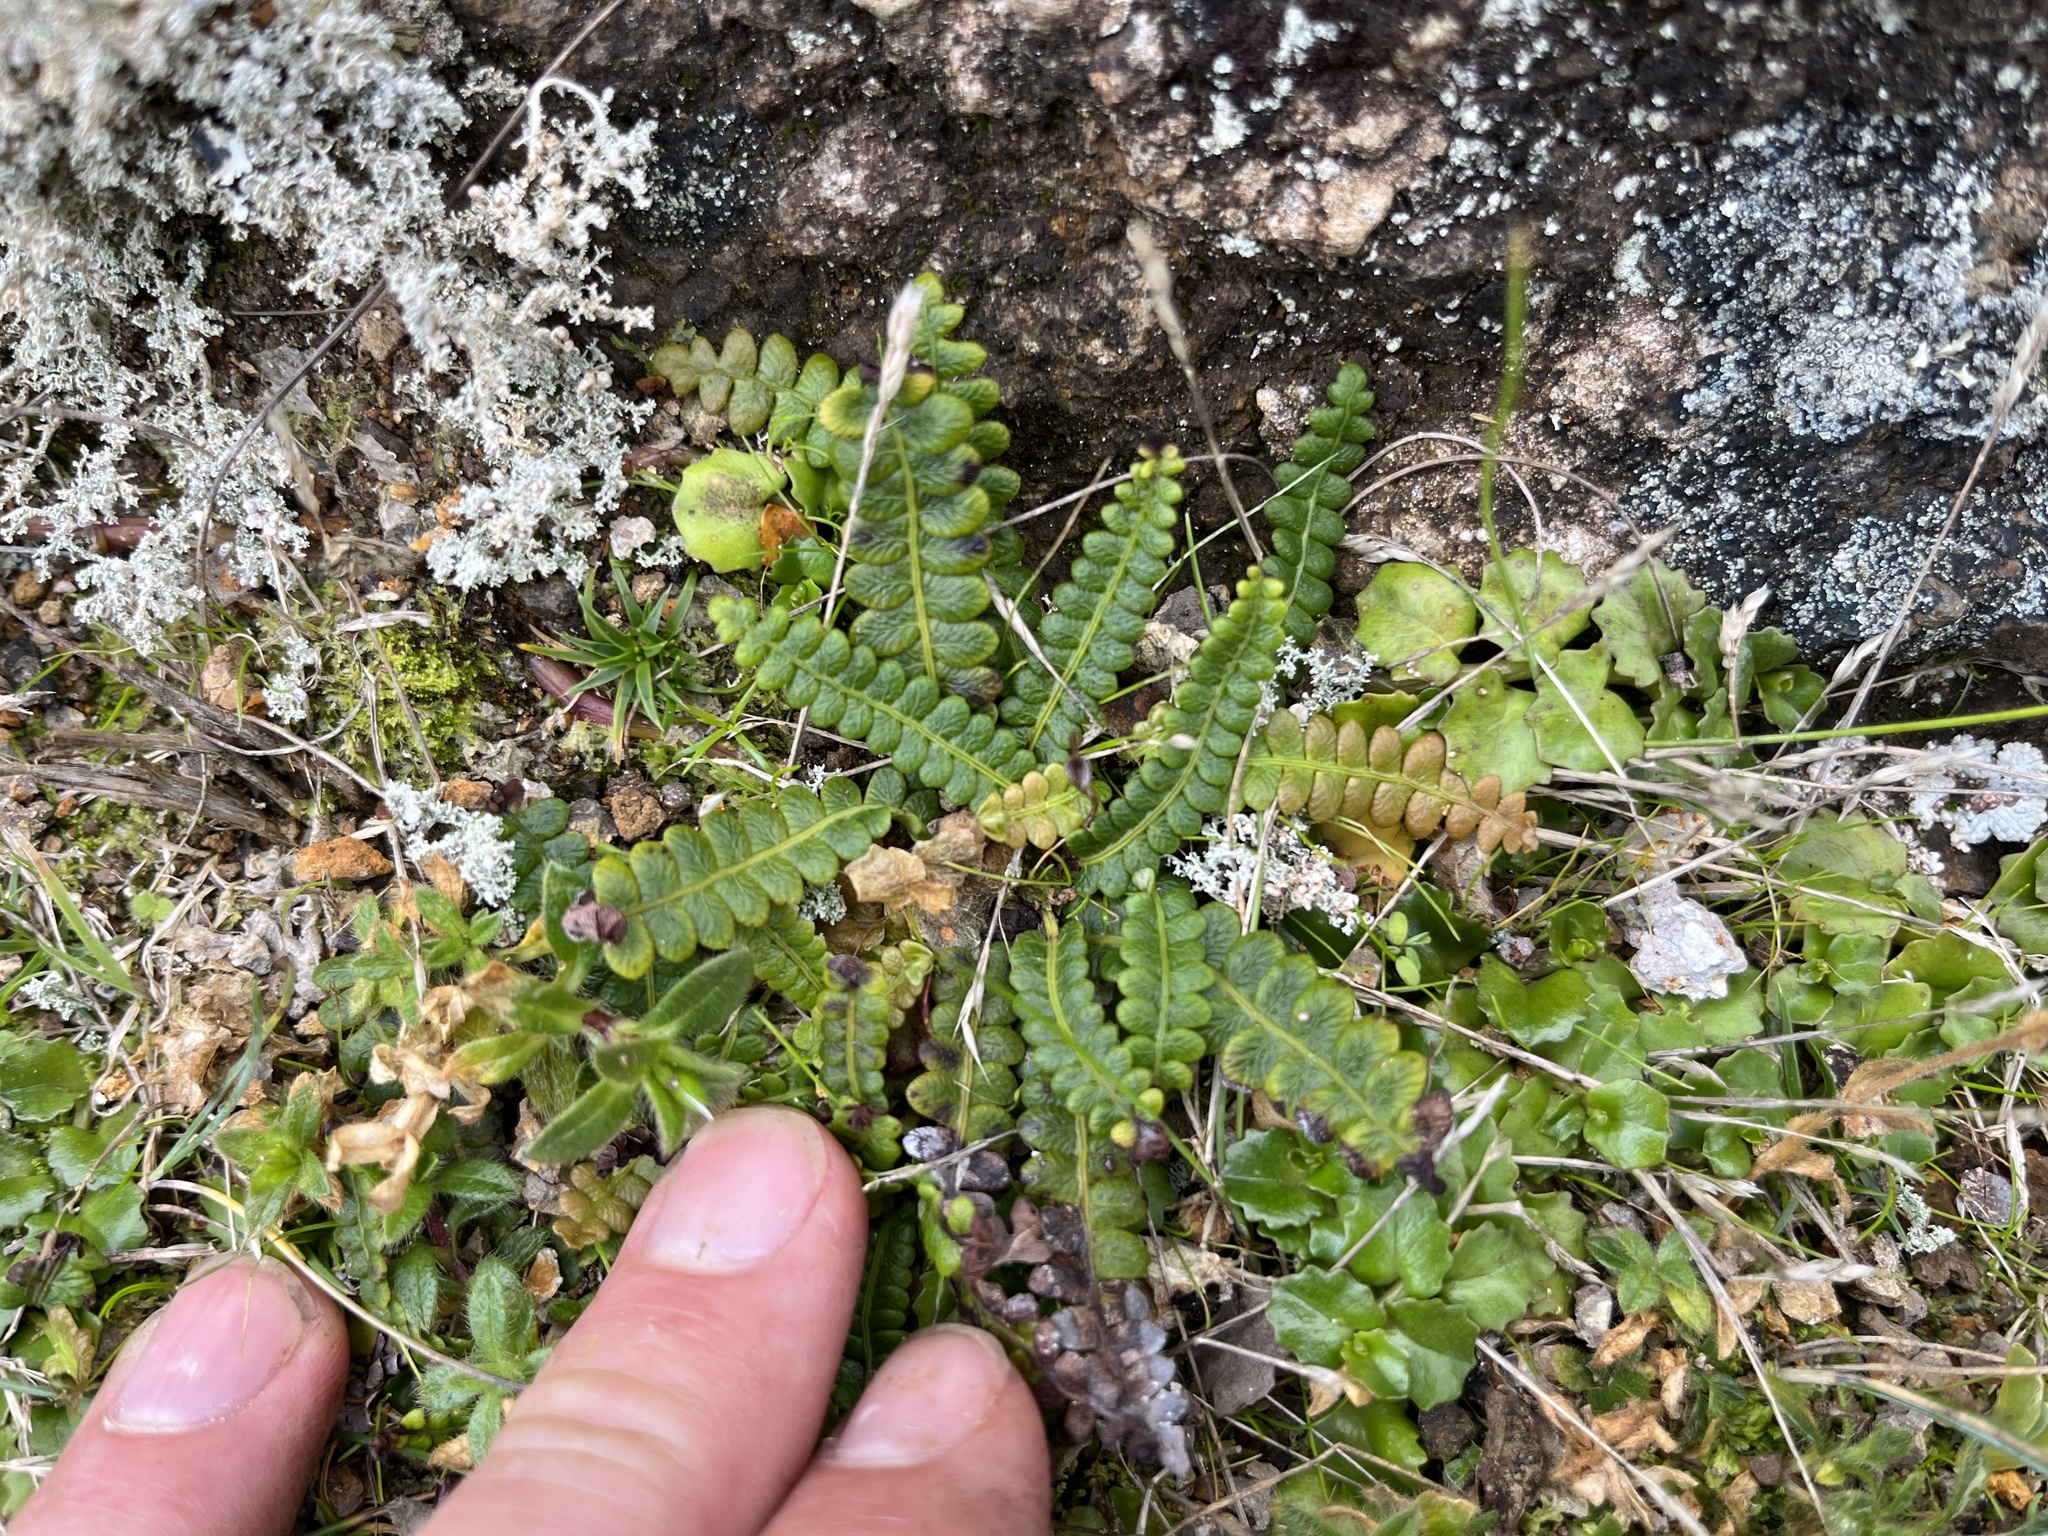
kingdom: Plantae
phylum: Tracheophyta
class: Polypodiopsida
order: Polypodiales
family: Blechnaceae
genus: Austroblechnum
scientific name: Austroblechnum penna-marina
